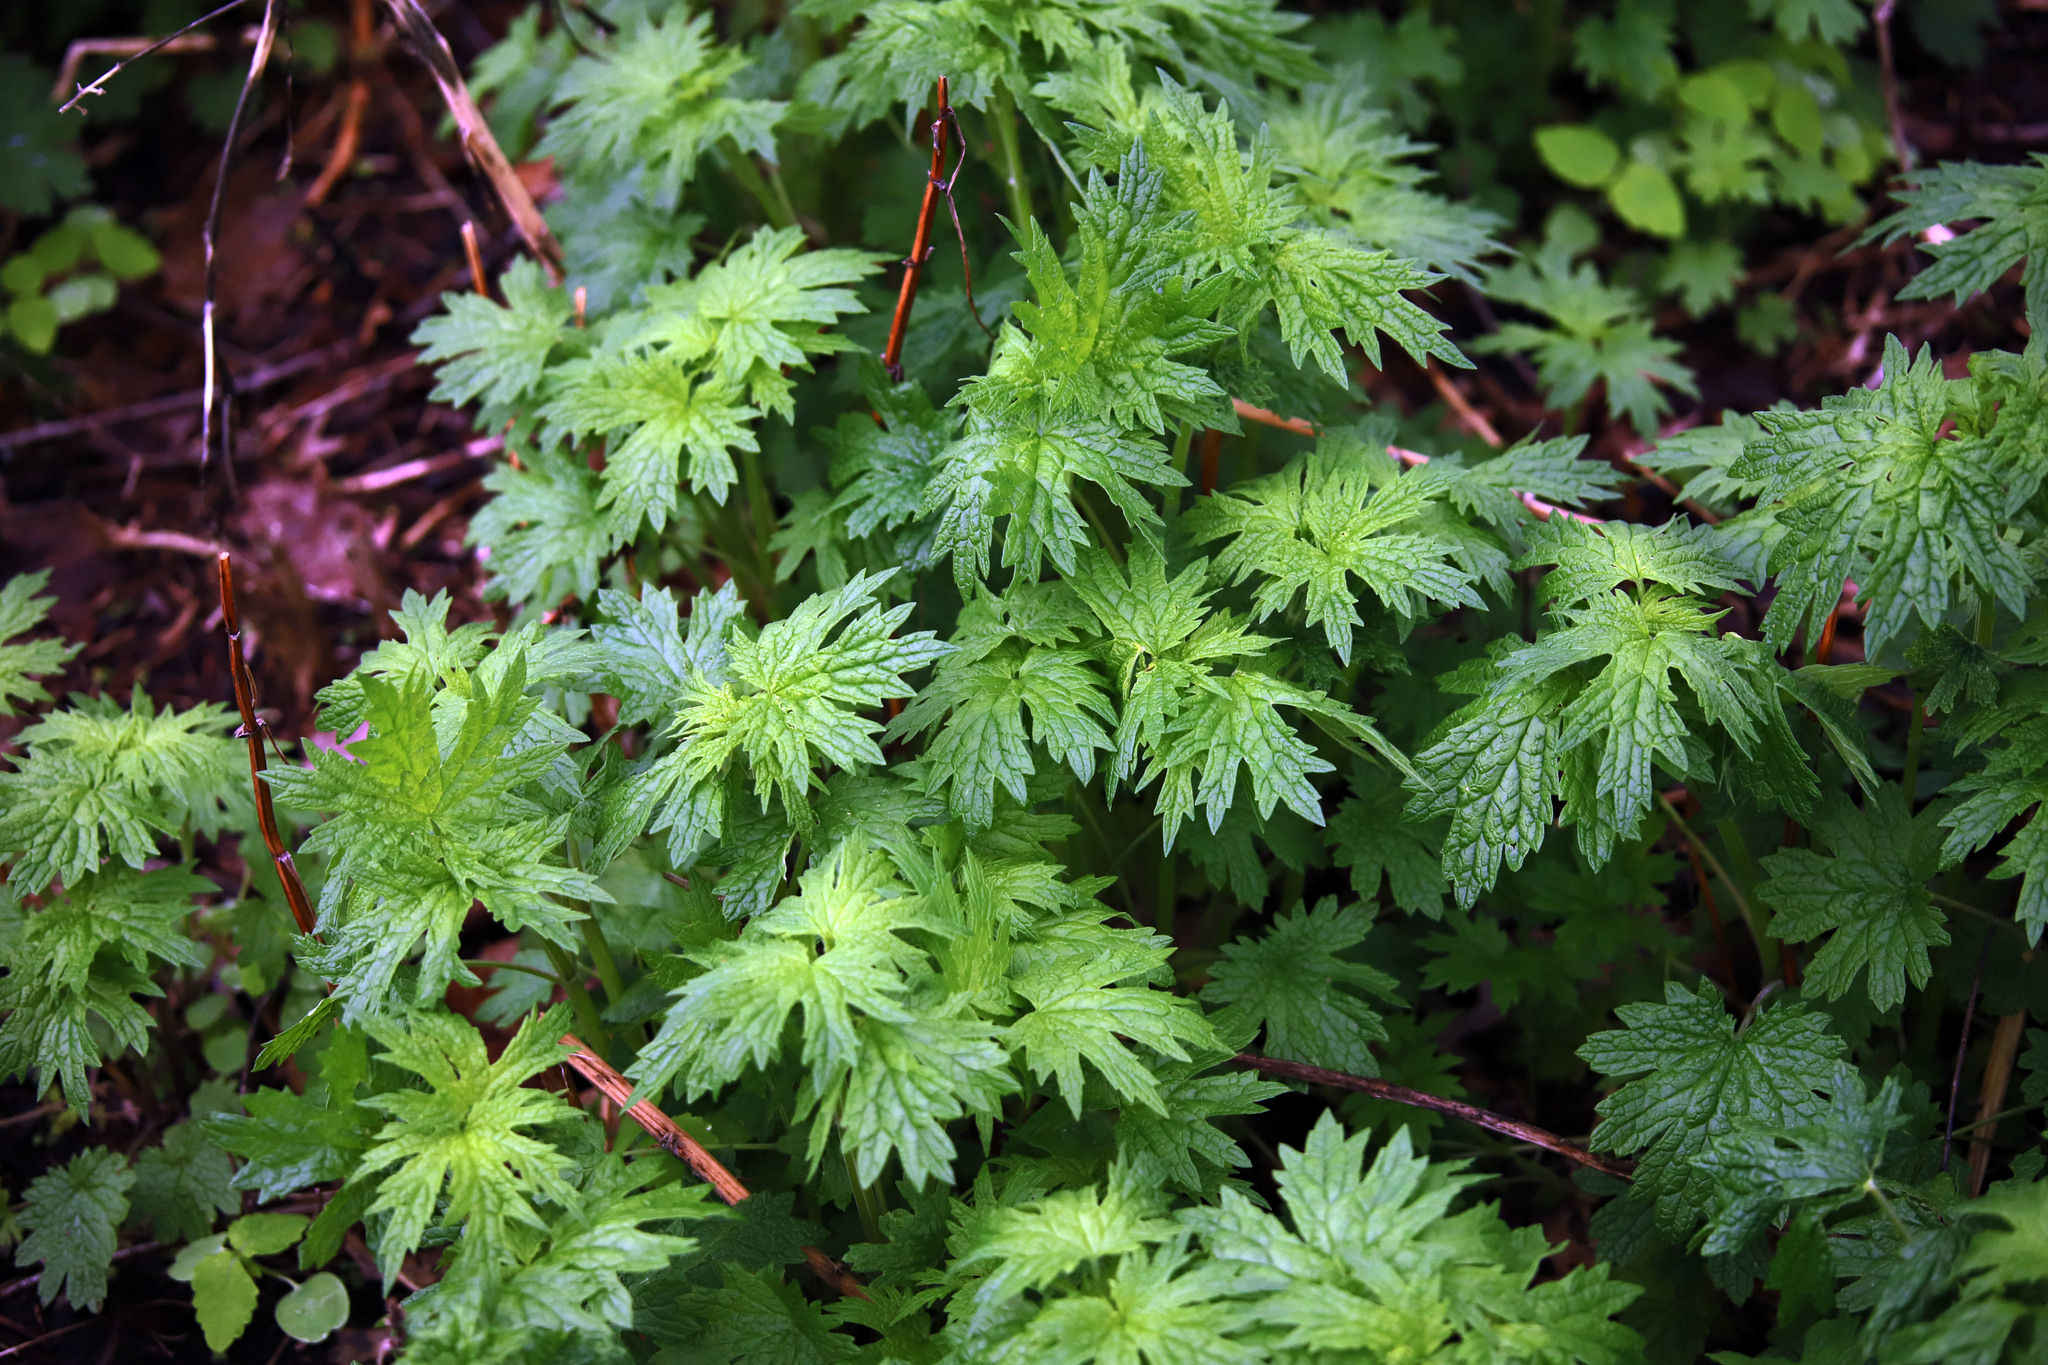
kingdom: Plantae
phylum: Tracheophyta
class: Magnoliopsida
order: Lamiales
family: Lamiaceae
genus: Leonurus
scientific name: Leonurus cardiaca
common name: Motherwort
